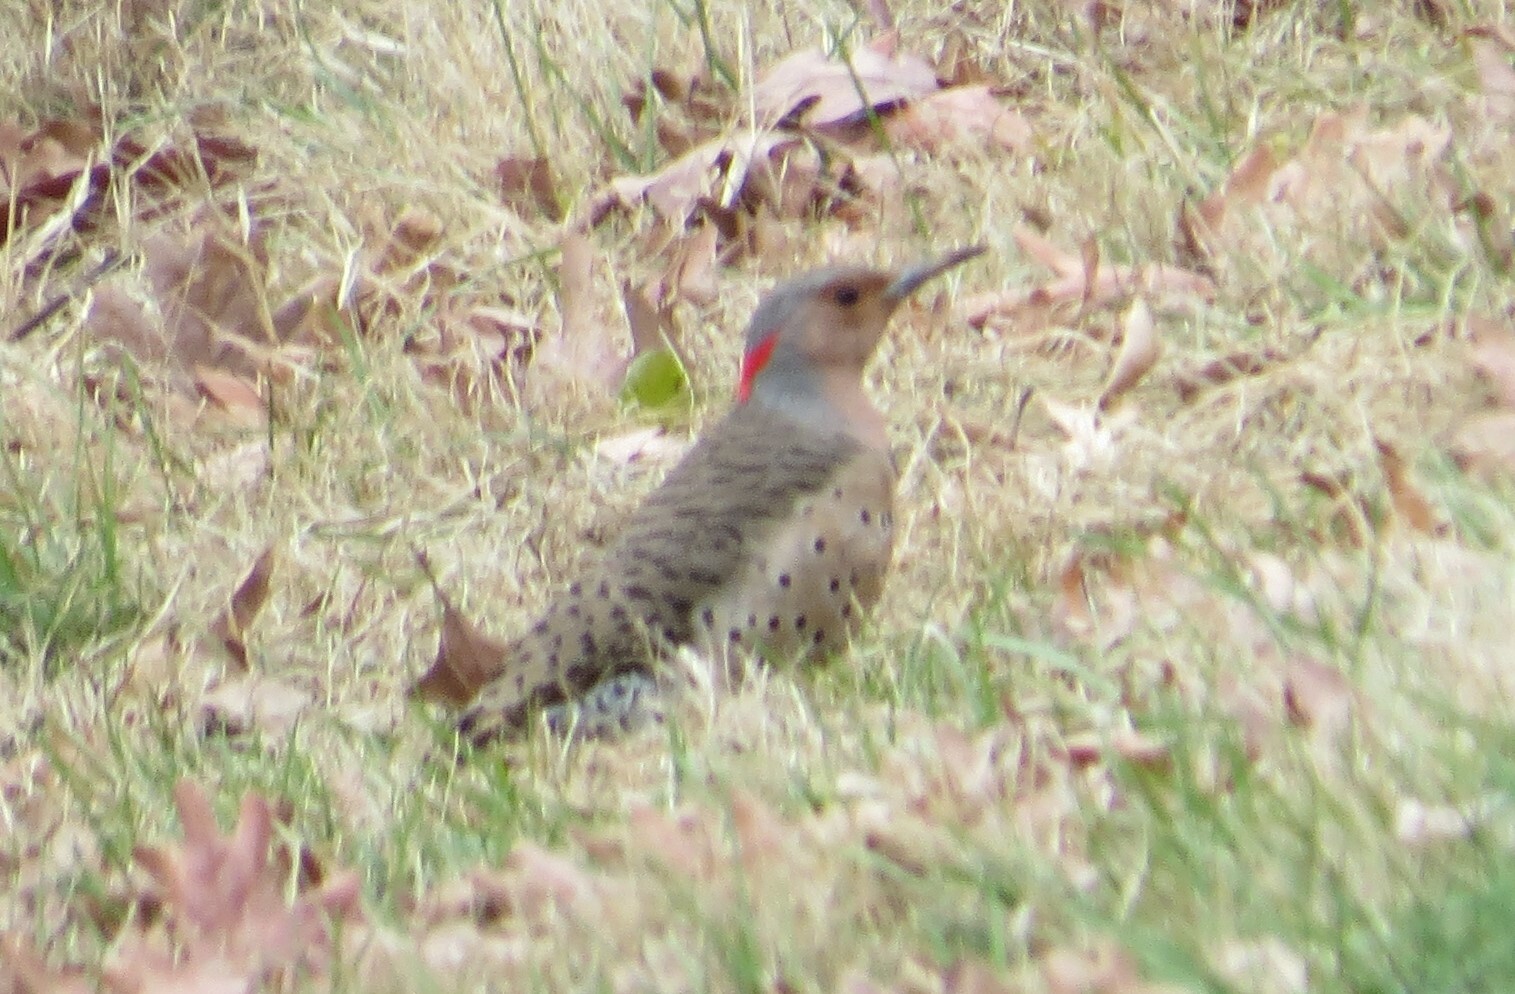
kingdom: Animalia
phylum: Chordata
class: Aves
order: Piciformes
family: Picidae
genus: Colaptes
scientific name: Colaptes auratus
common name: Northern flicker
